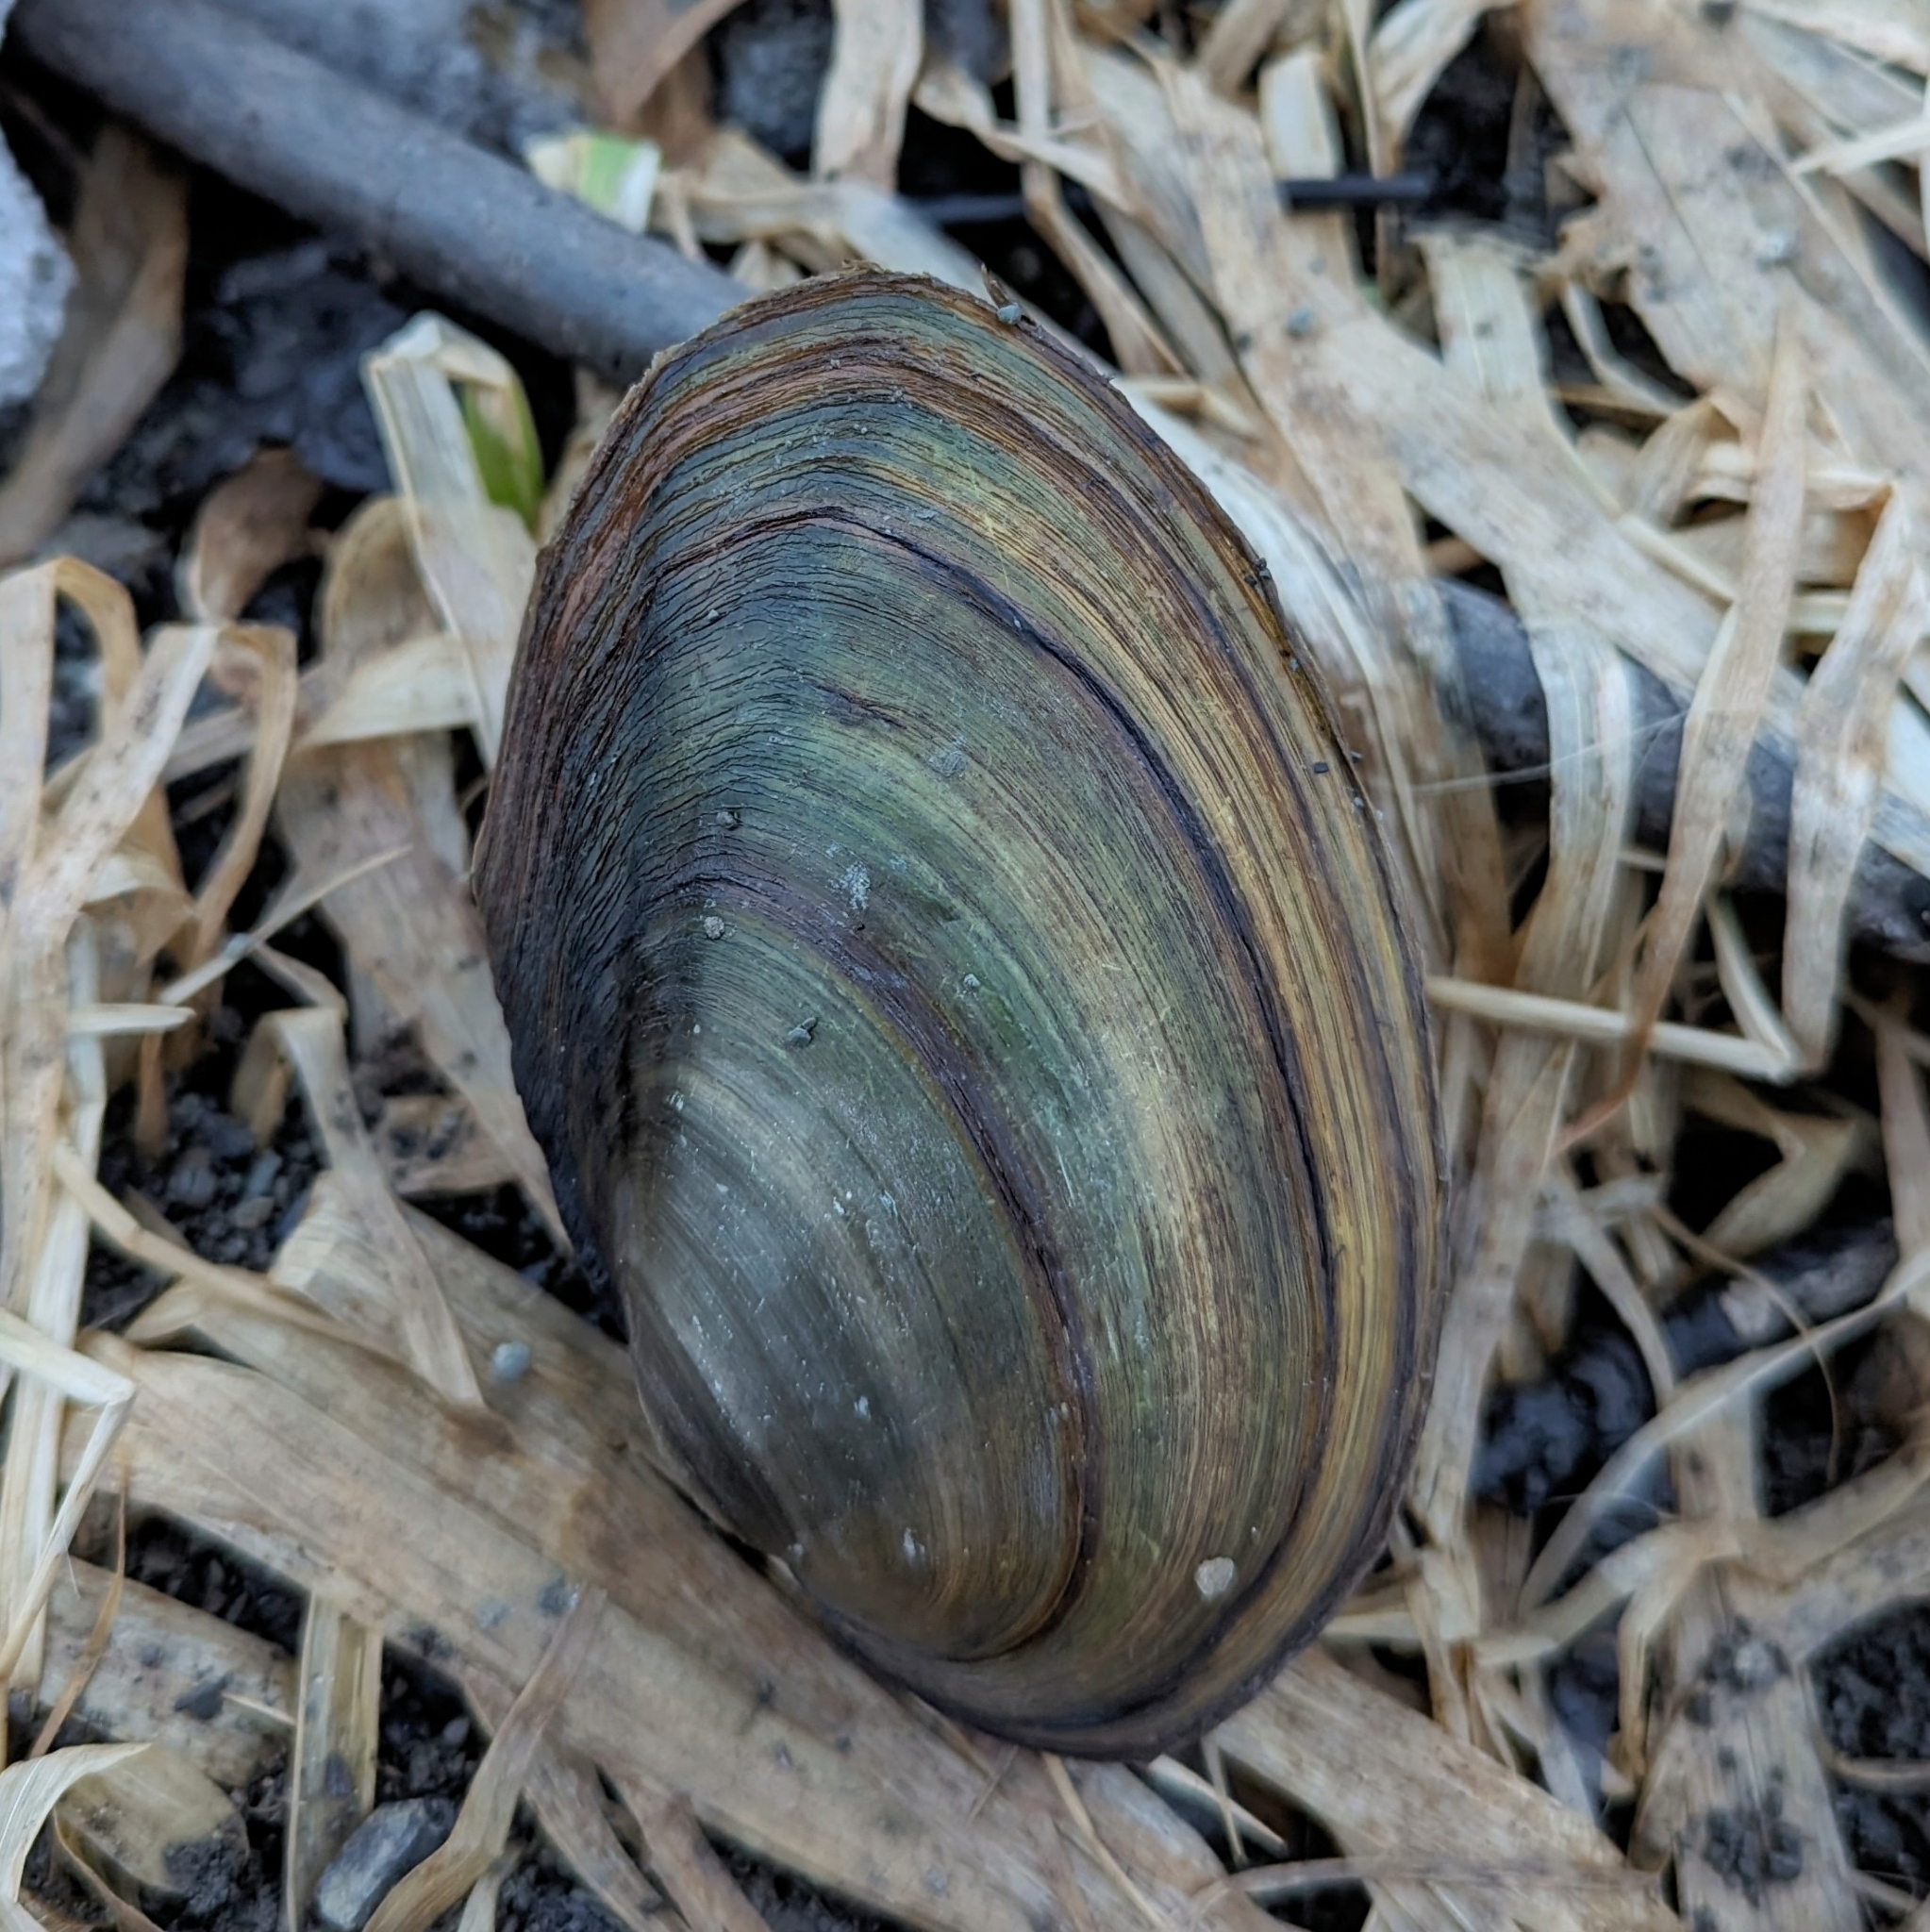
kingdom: Animalia
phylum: Mollusca
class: Bivalvia
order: Unionida
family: Unionidae
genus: Pyganodon
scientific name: Pyganodon grandis
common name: Giant floater
